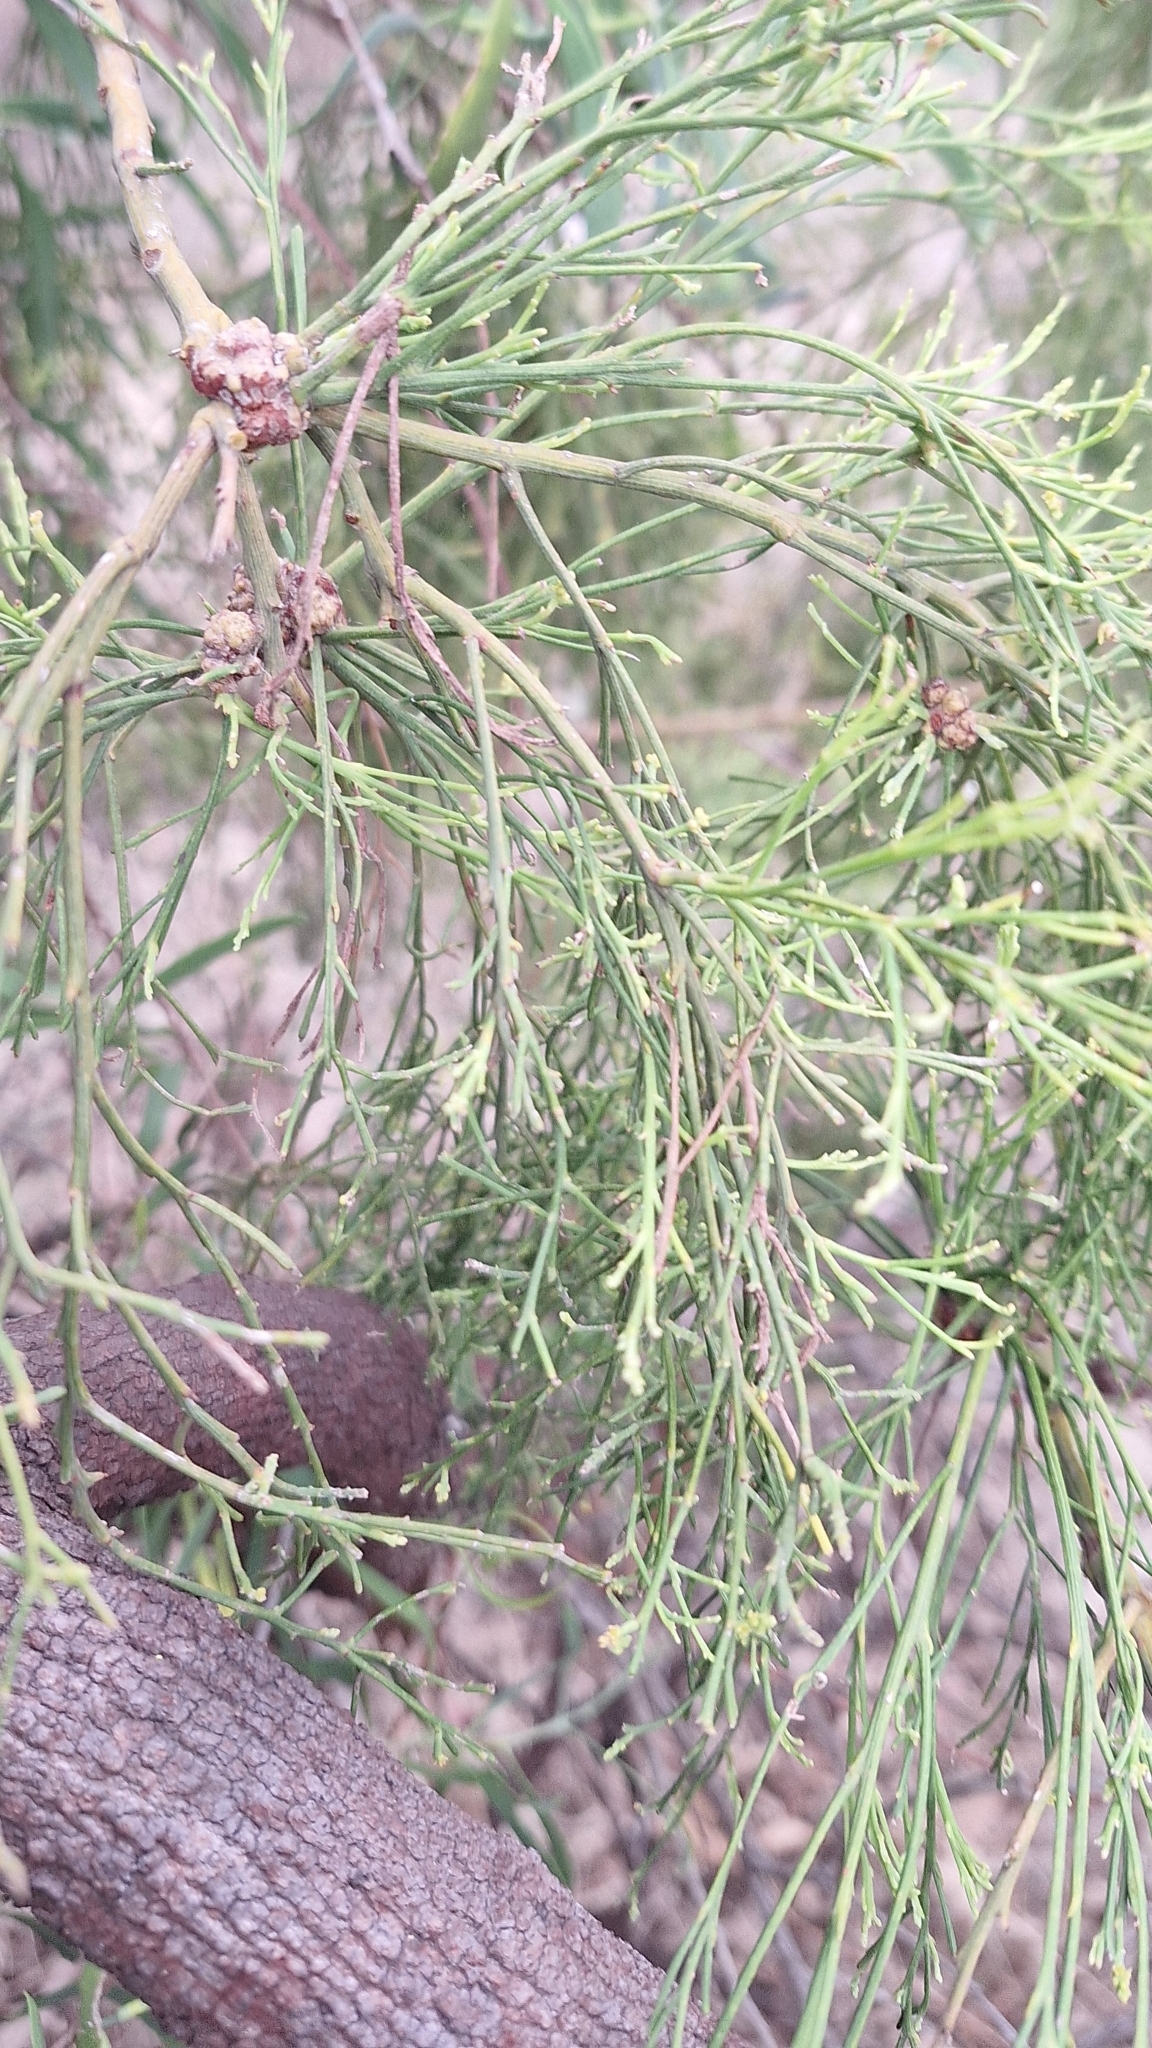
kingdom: Plantae
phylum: Tracheophyta
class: Magnoliopsida
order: Santalales
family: Santalaceae
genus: Exocarpos
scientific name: Exocarpos cupressiformis
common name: Cherry ballart
